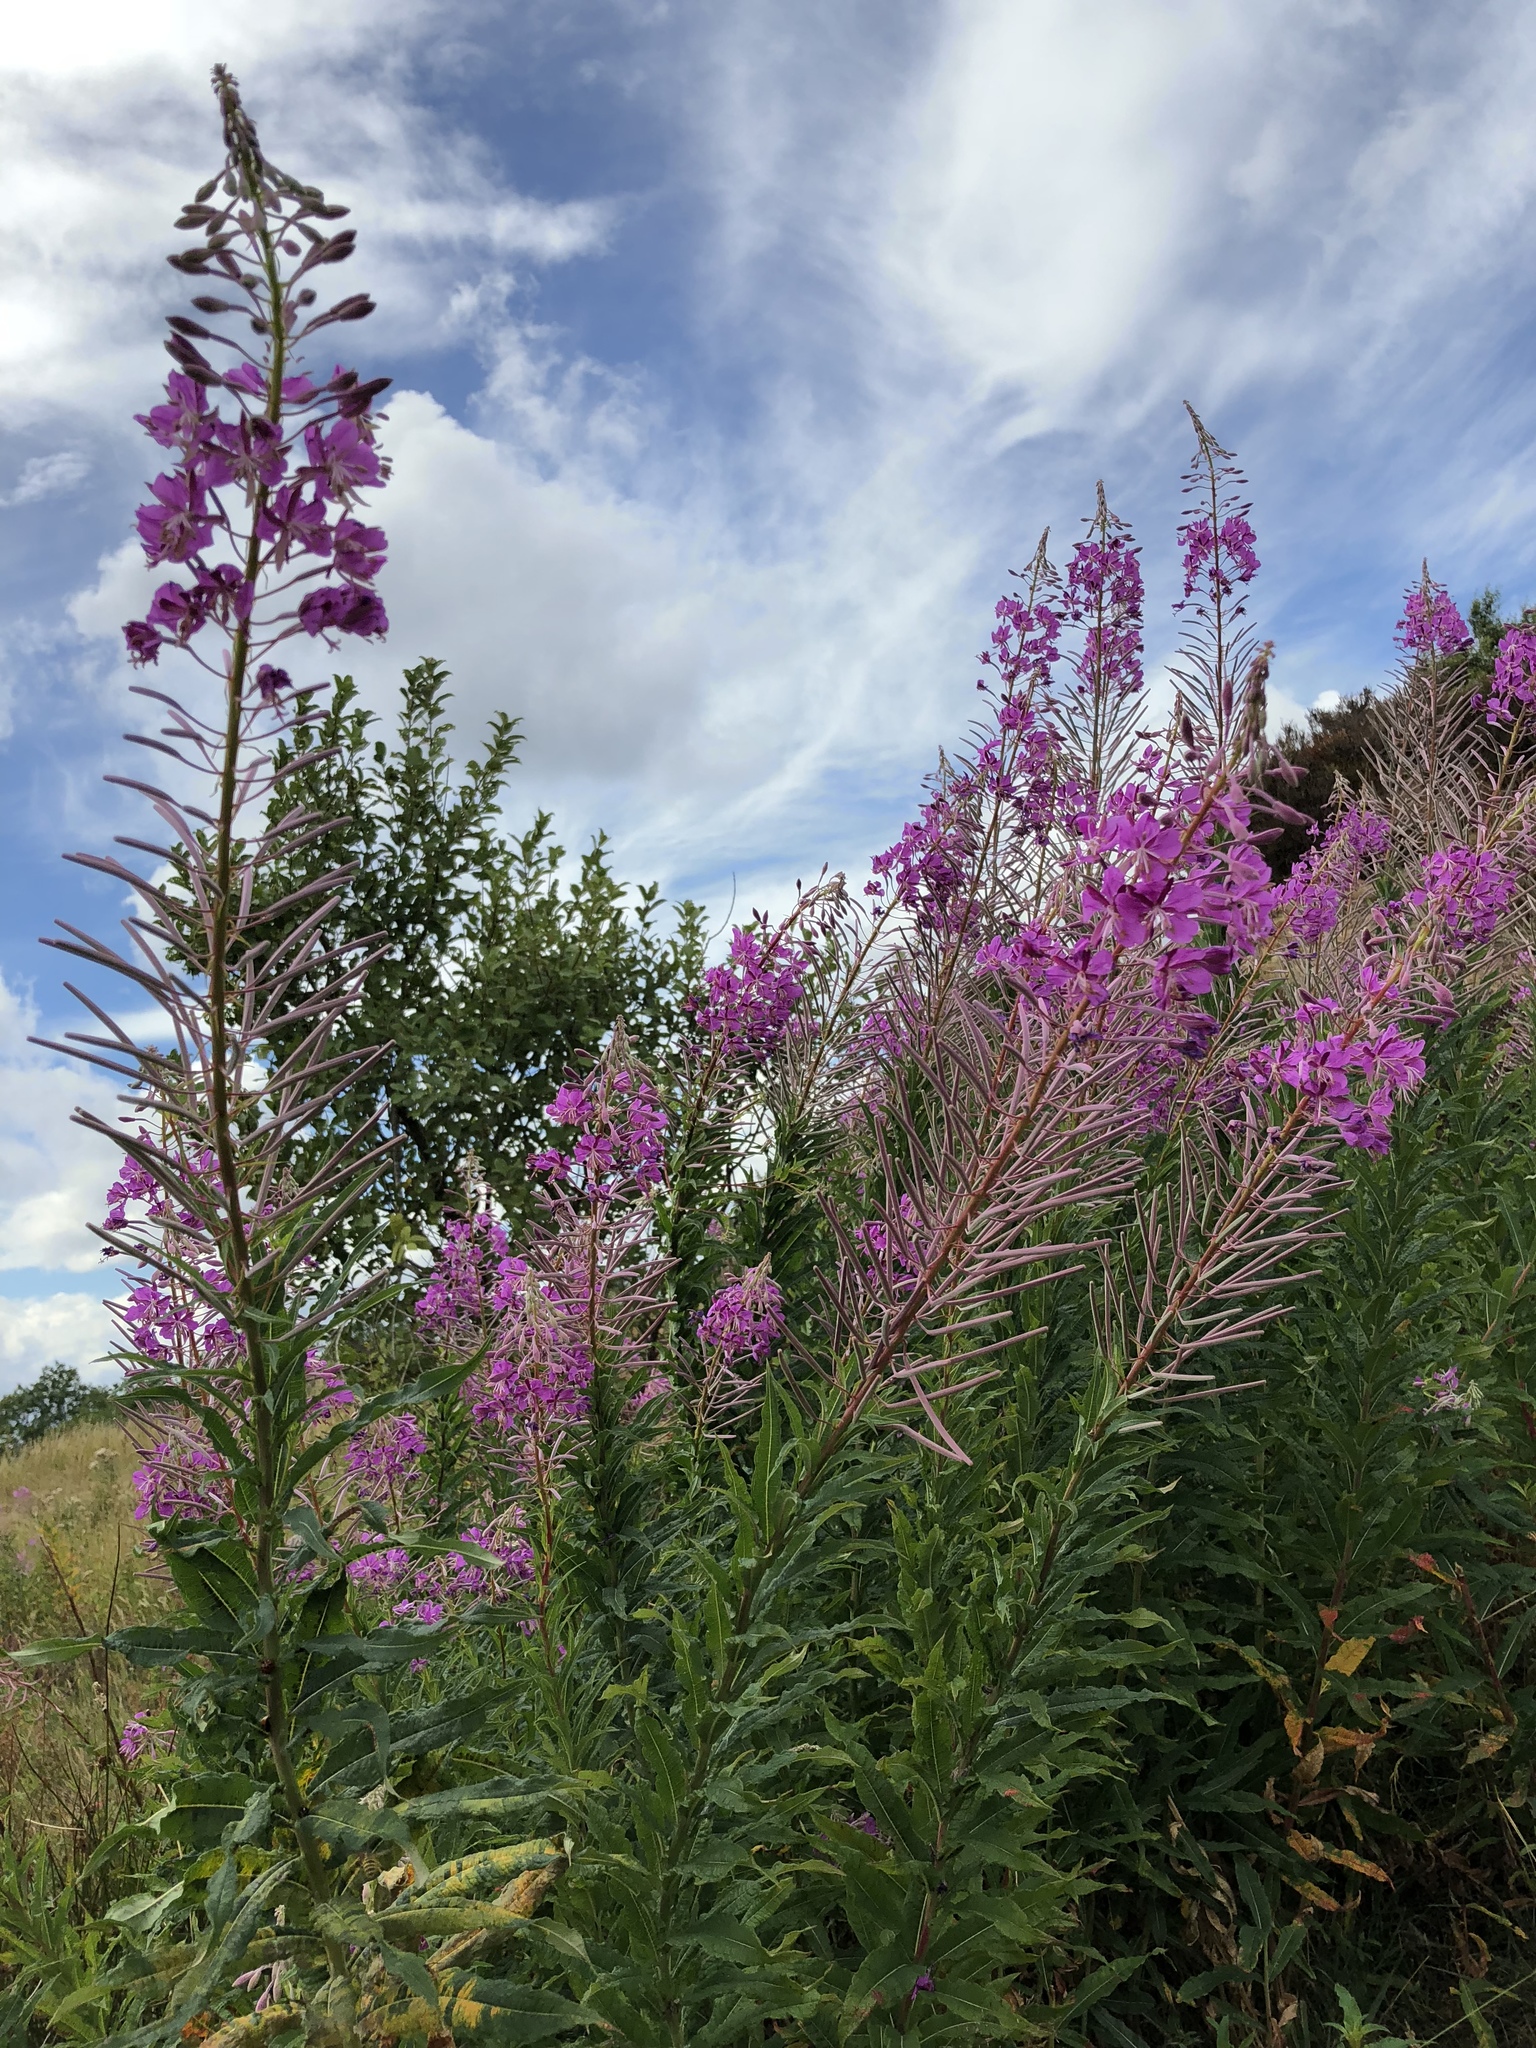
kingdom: Plantae
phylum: Tracheophyta
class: Magnoliopsida
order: Myrtales
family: Onagraceae
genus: Chamaenerion
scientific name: Chamaenerion angustifolium
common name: Fireweed
